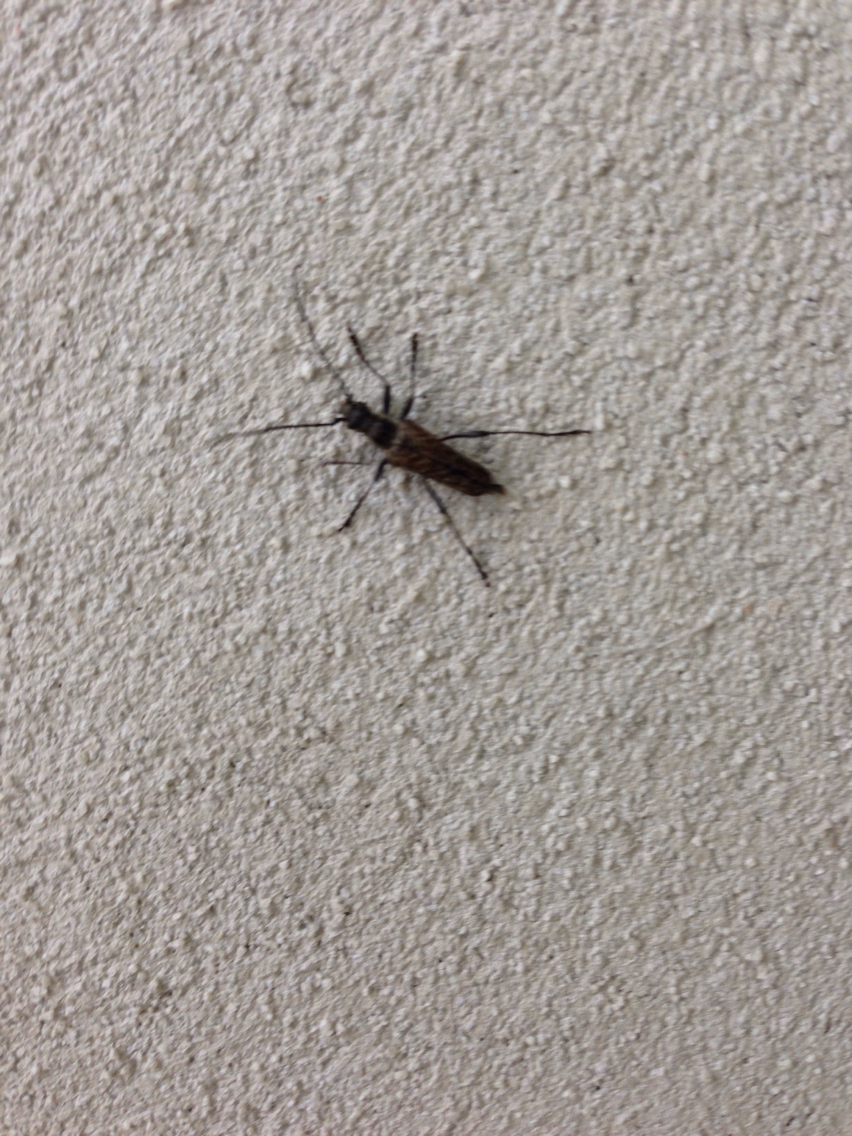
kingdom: Animalia
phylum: Arthropoda
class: Insecta
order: Coleoptera
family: Cerambycidae
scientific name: Cerambycidae
